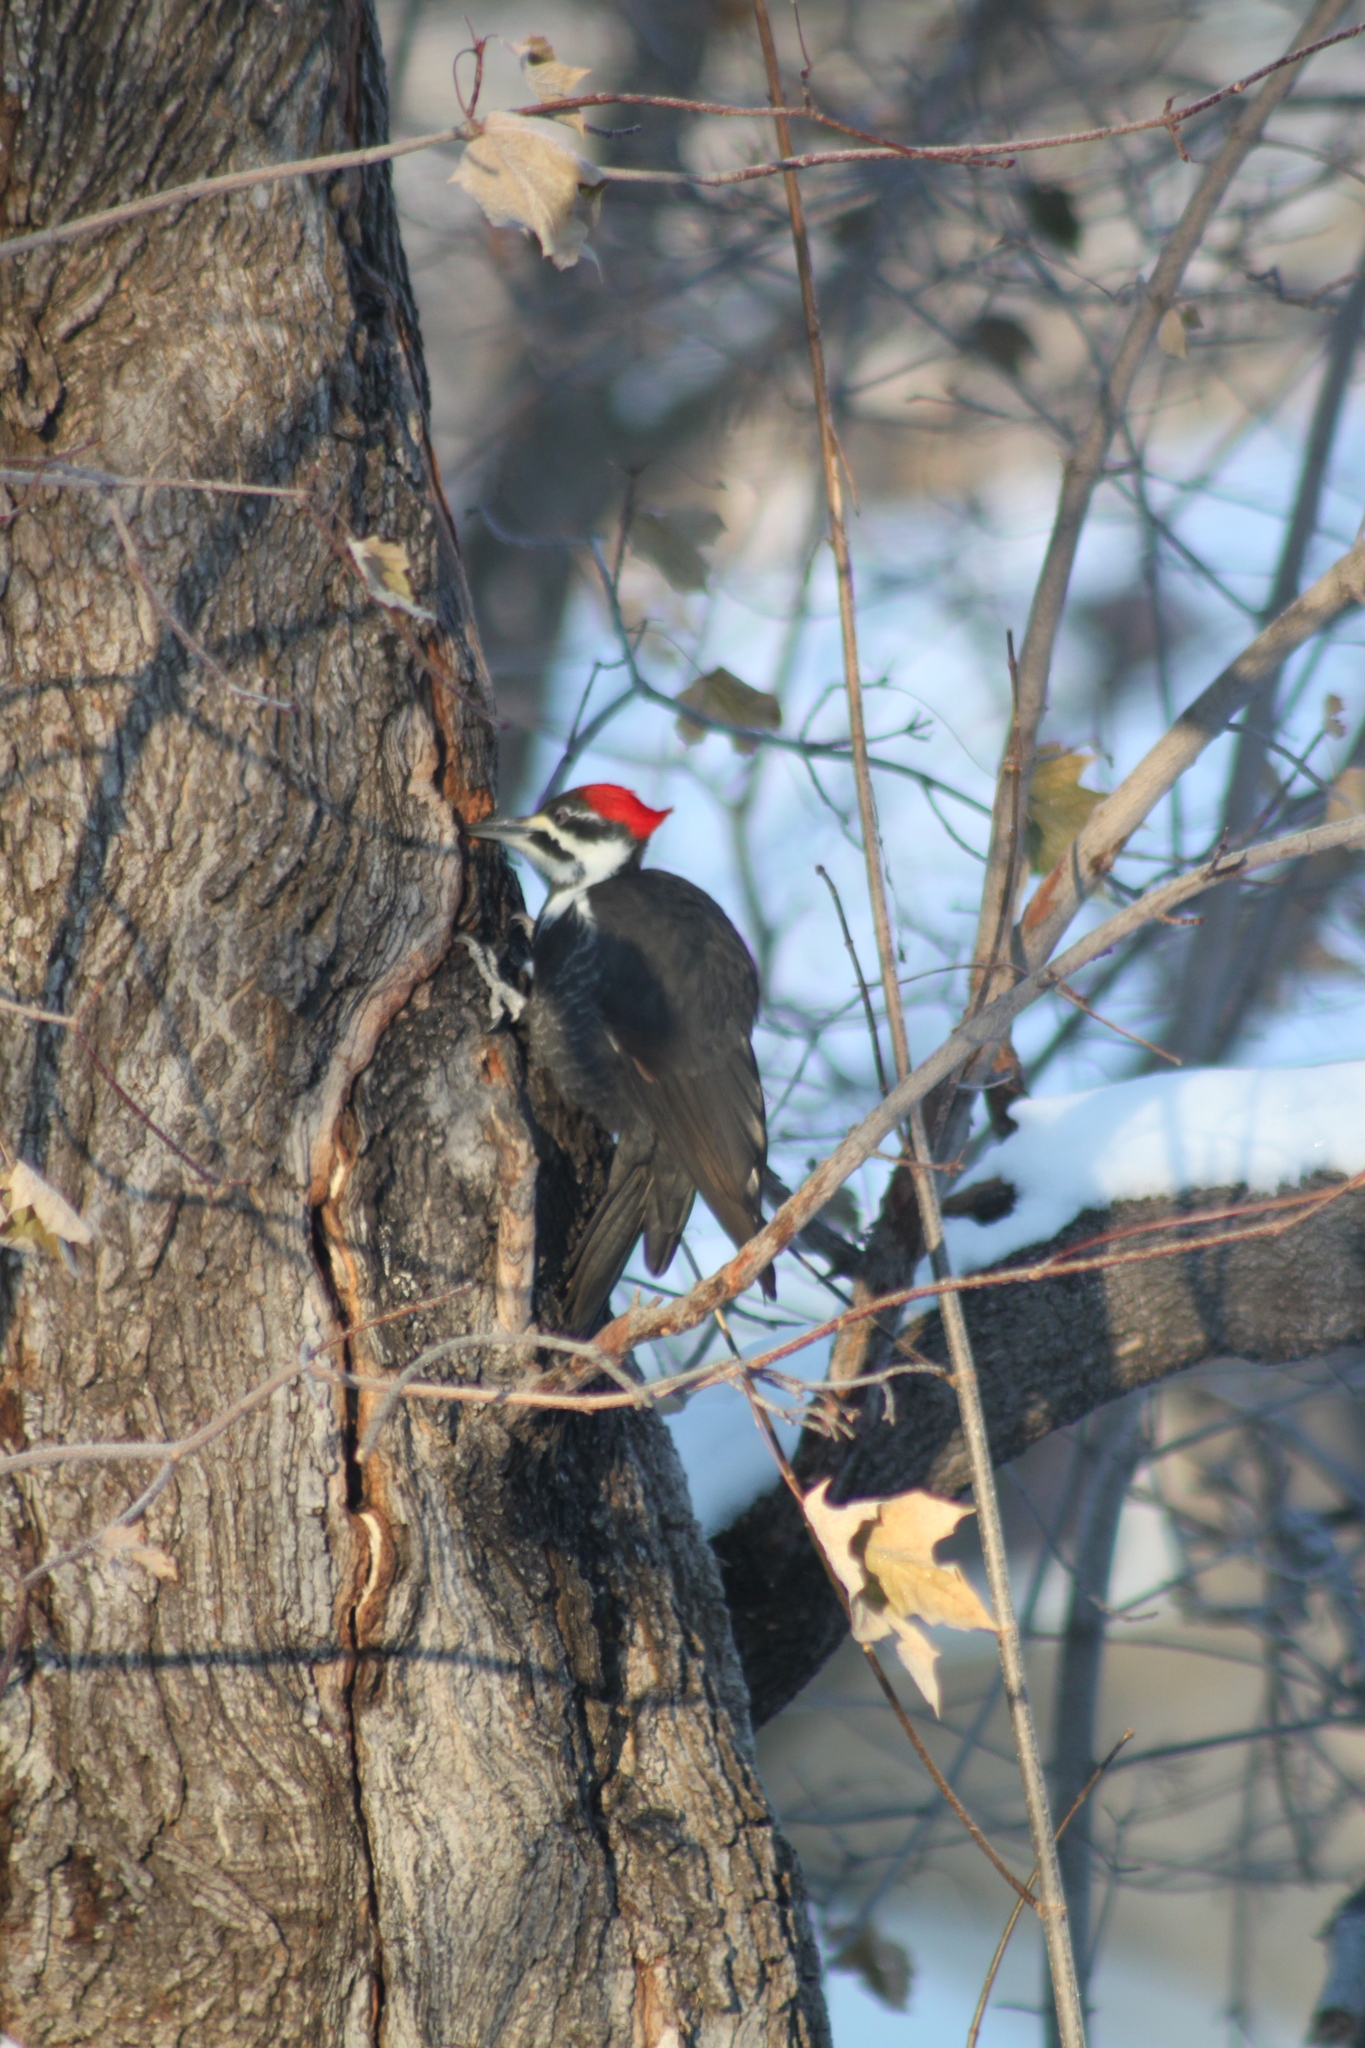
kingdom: Animalia
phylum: Chordata
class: Aves
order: Piciformes
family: Picidae
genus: Dryocopus
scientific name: Dryocopus pileatus
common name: Pileated woodpecker
